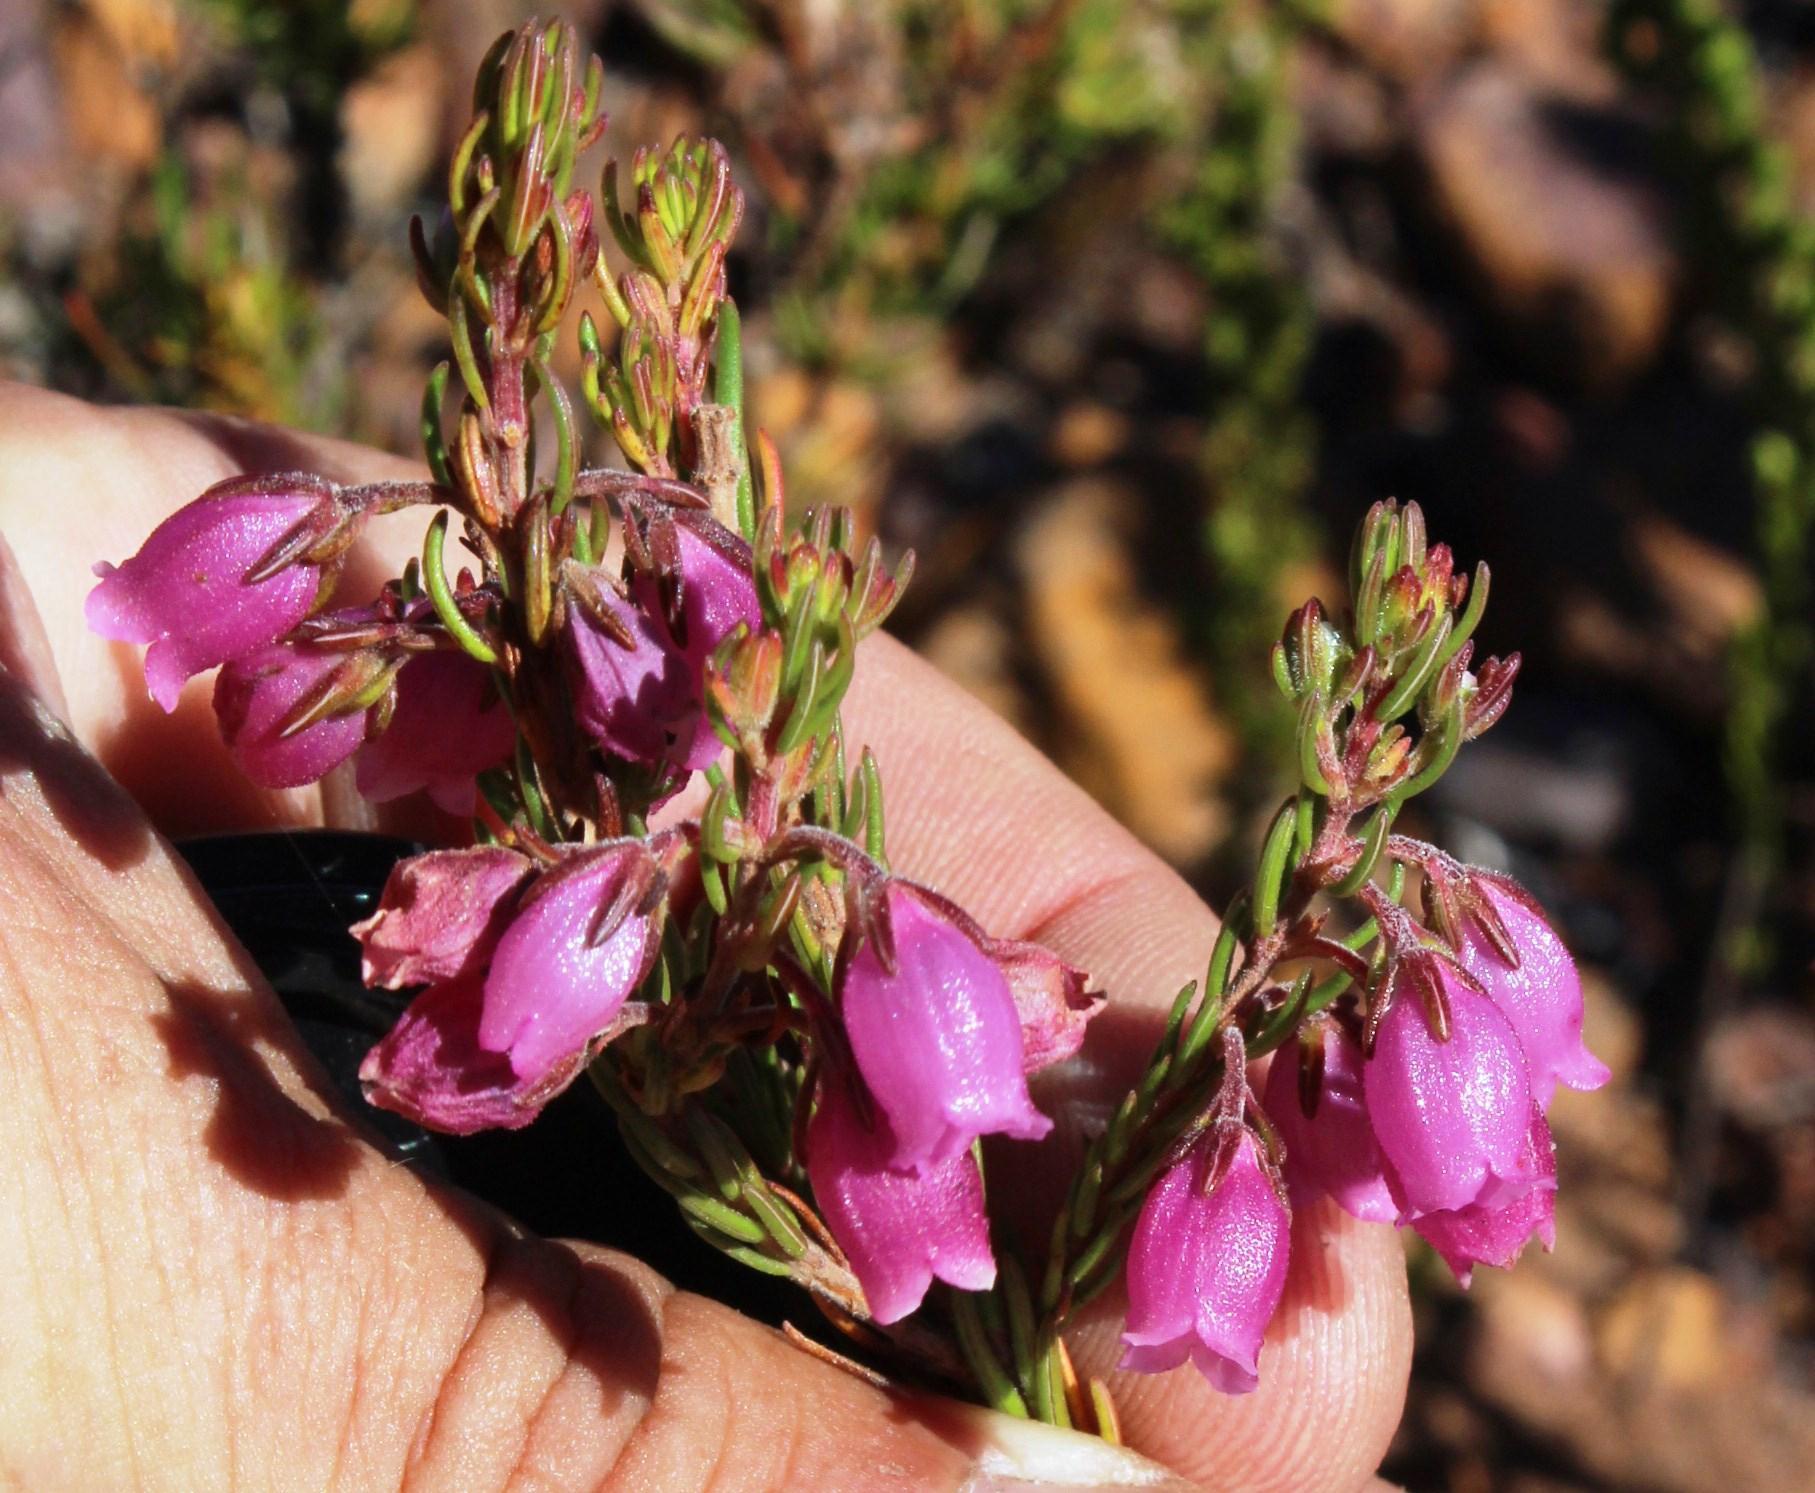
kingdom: Plantae
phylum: Tracheophyta
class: Magnoliopsida
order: Ericales
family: Ericaceae
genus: Erica
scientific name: Erica viscaria
